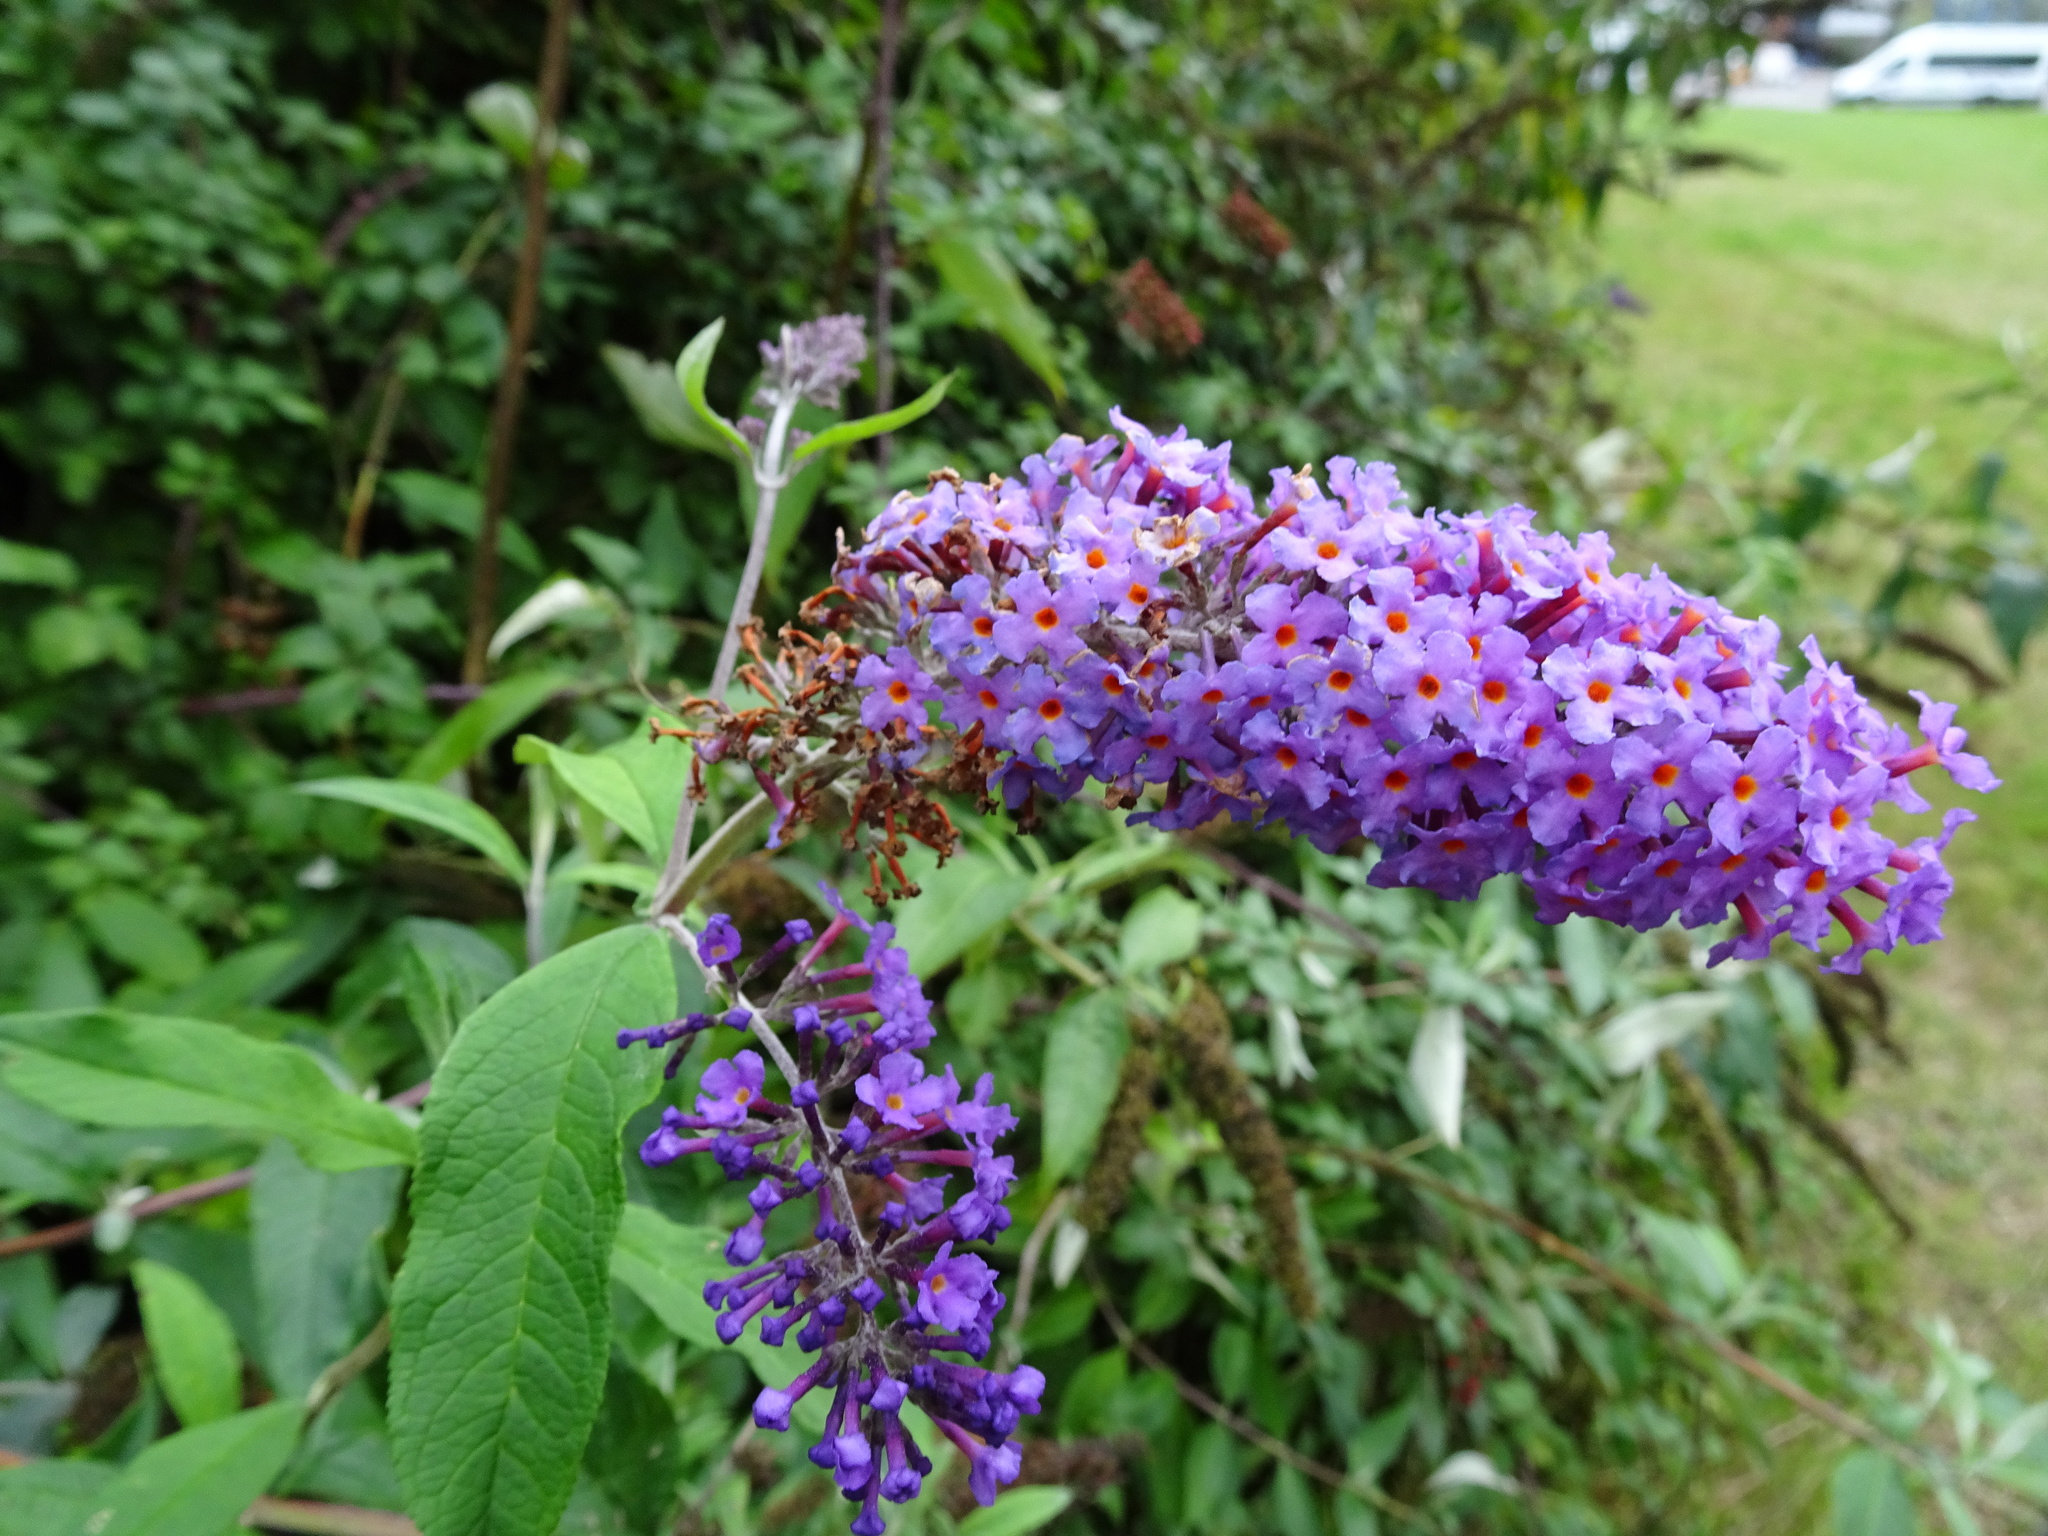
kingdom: Plantae
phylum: Tracheophyta
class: Magnoliopsida
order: Lamiales
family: Scrophulariaceae
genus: Buddleja
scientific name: Buddleja davidii
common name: Butterfly-bush
